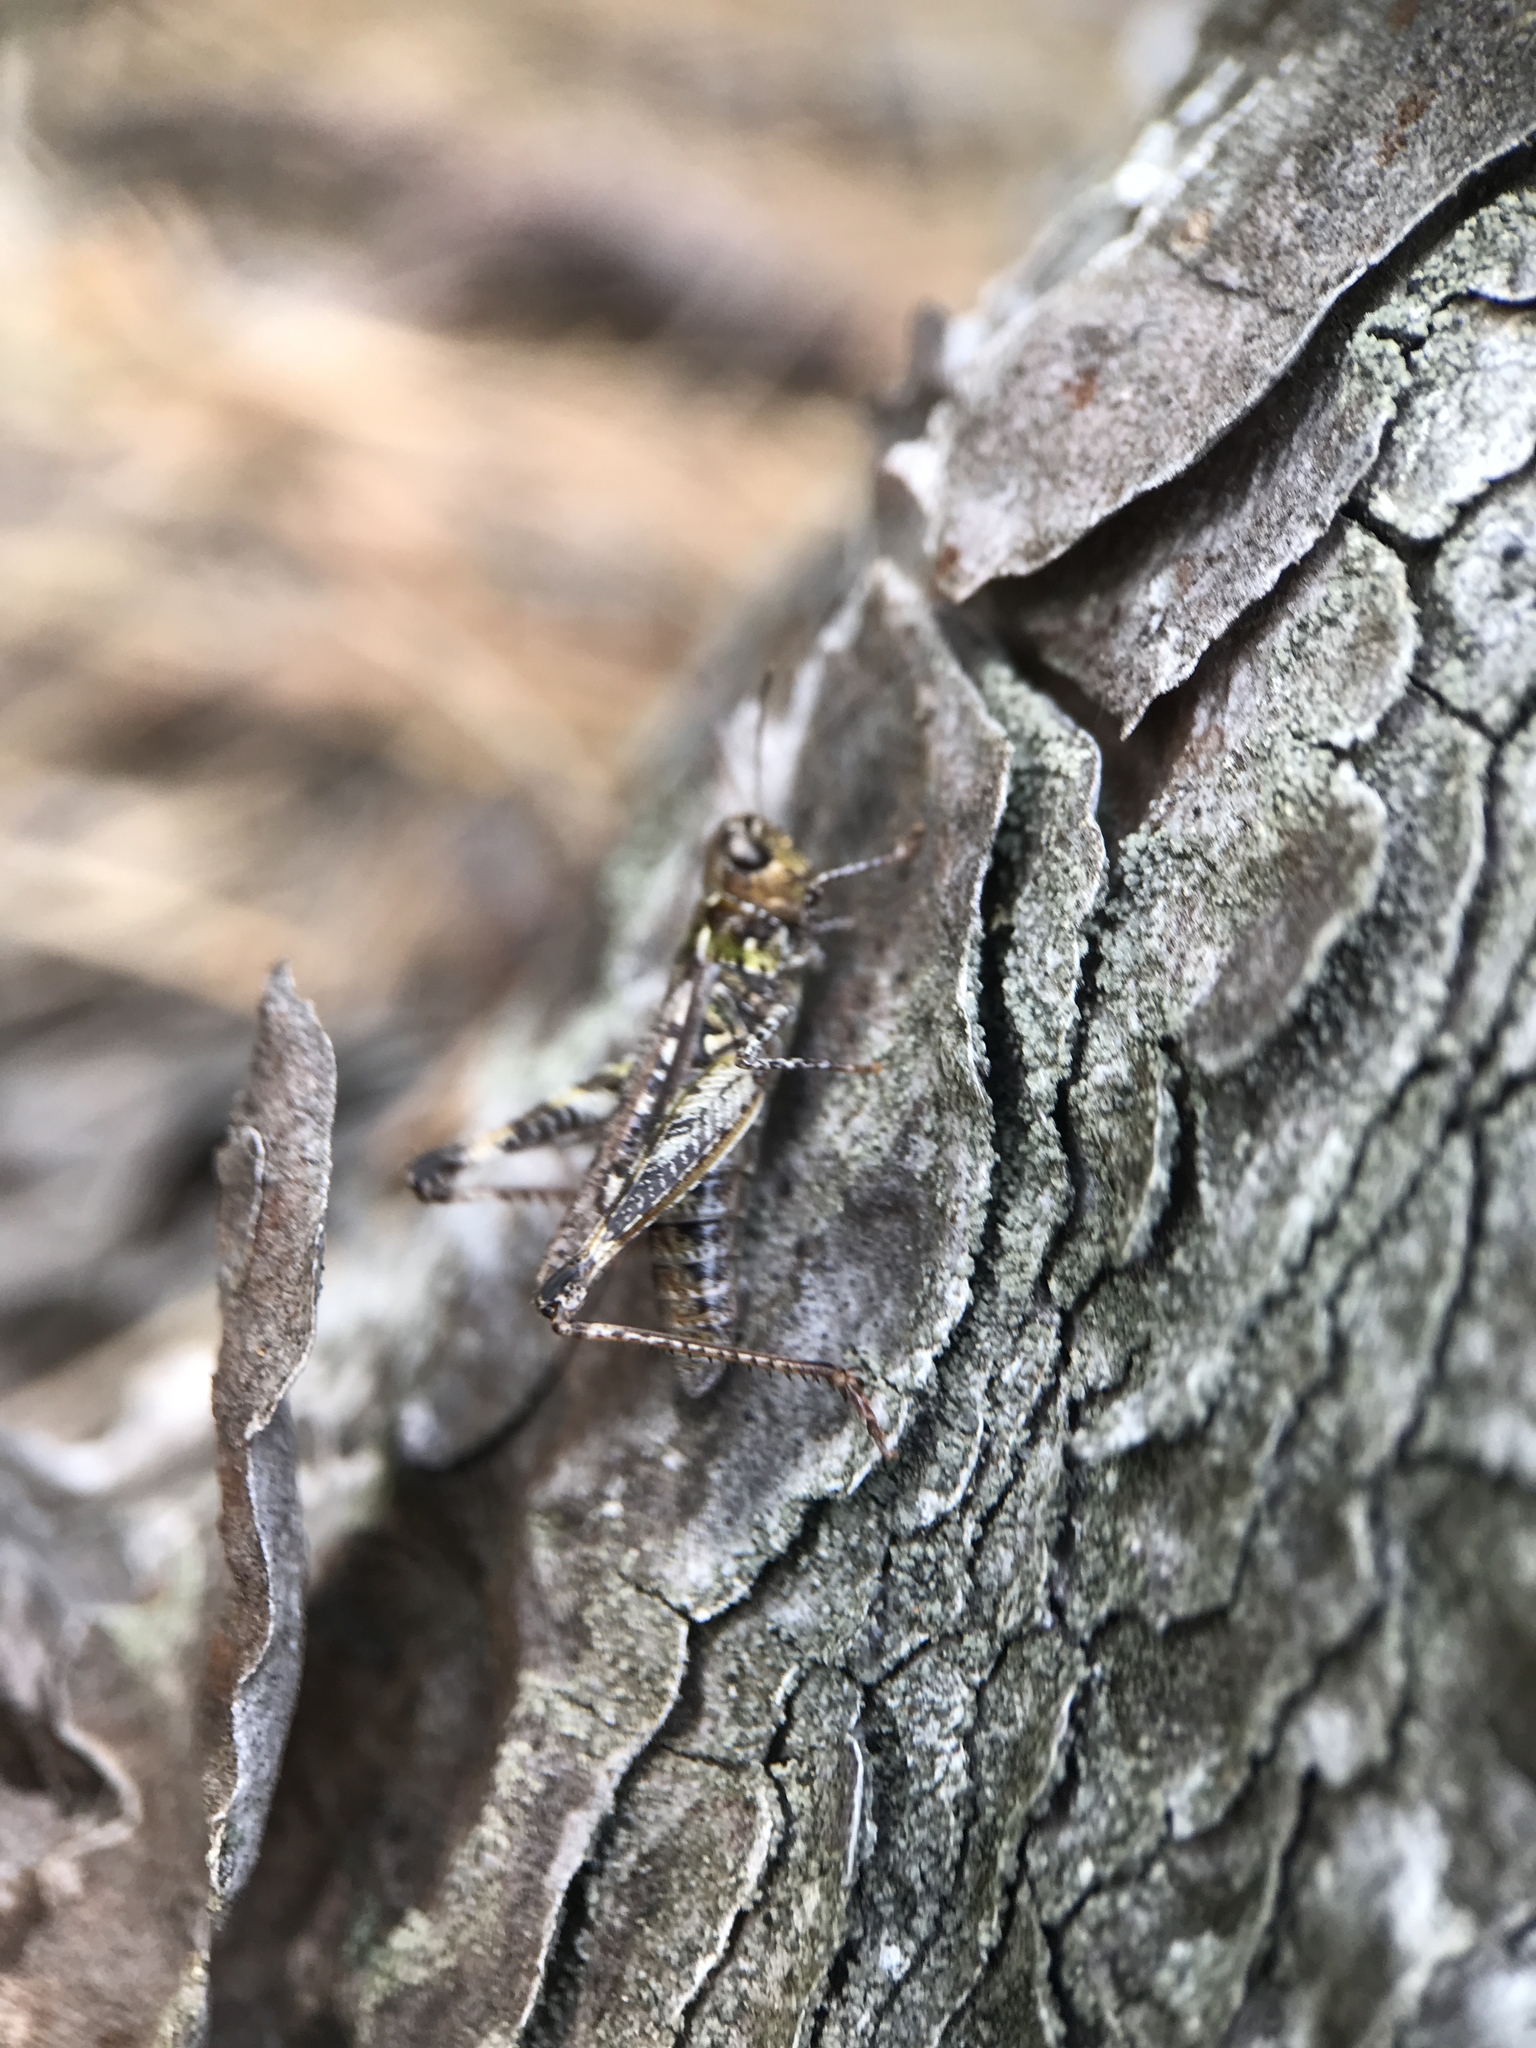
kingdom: Animalia
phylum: Arthropoda
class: Insecta
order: Orthoptera
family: Acrididae
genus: Myrmeleotettix
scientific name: Myrmeleotettix maculatus
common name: Mottled grasshopper
